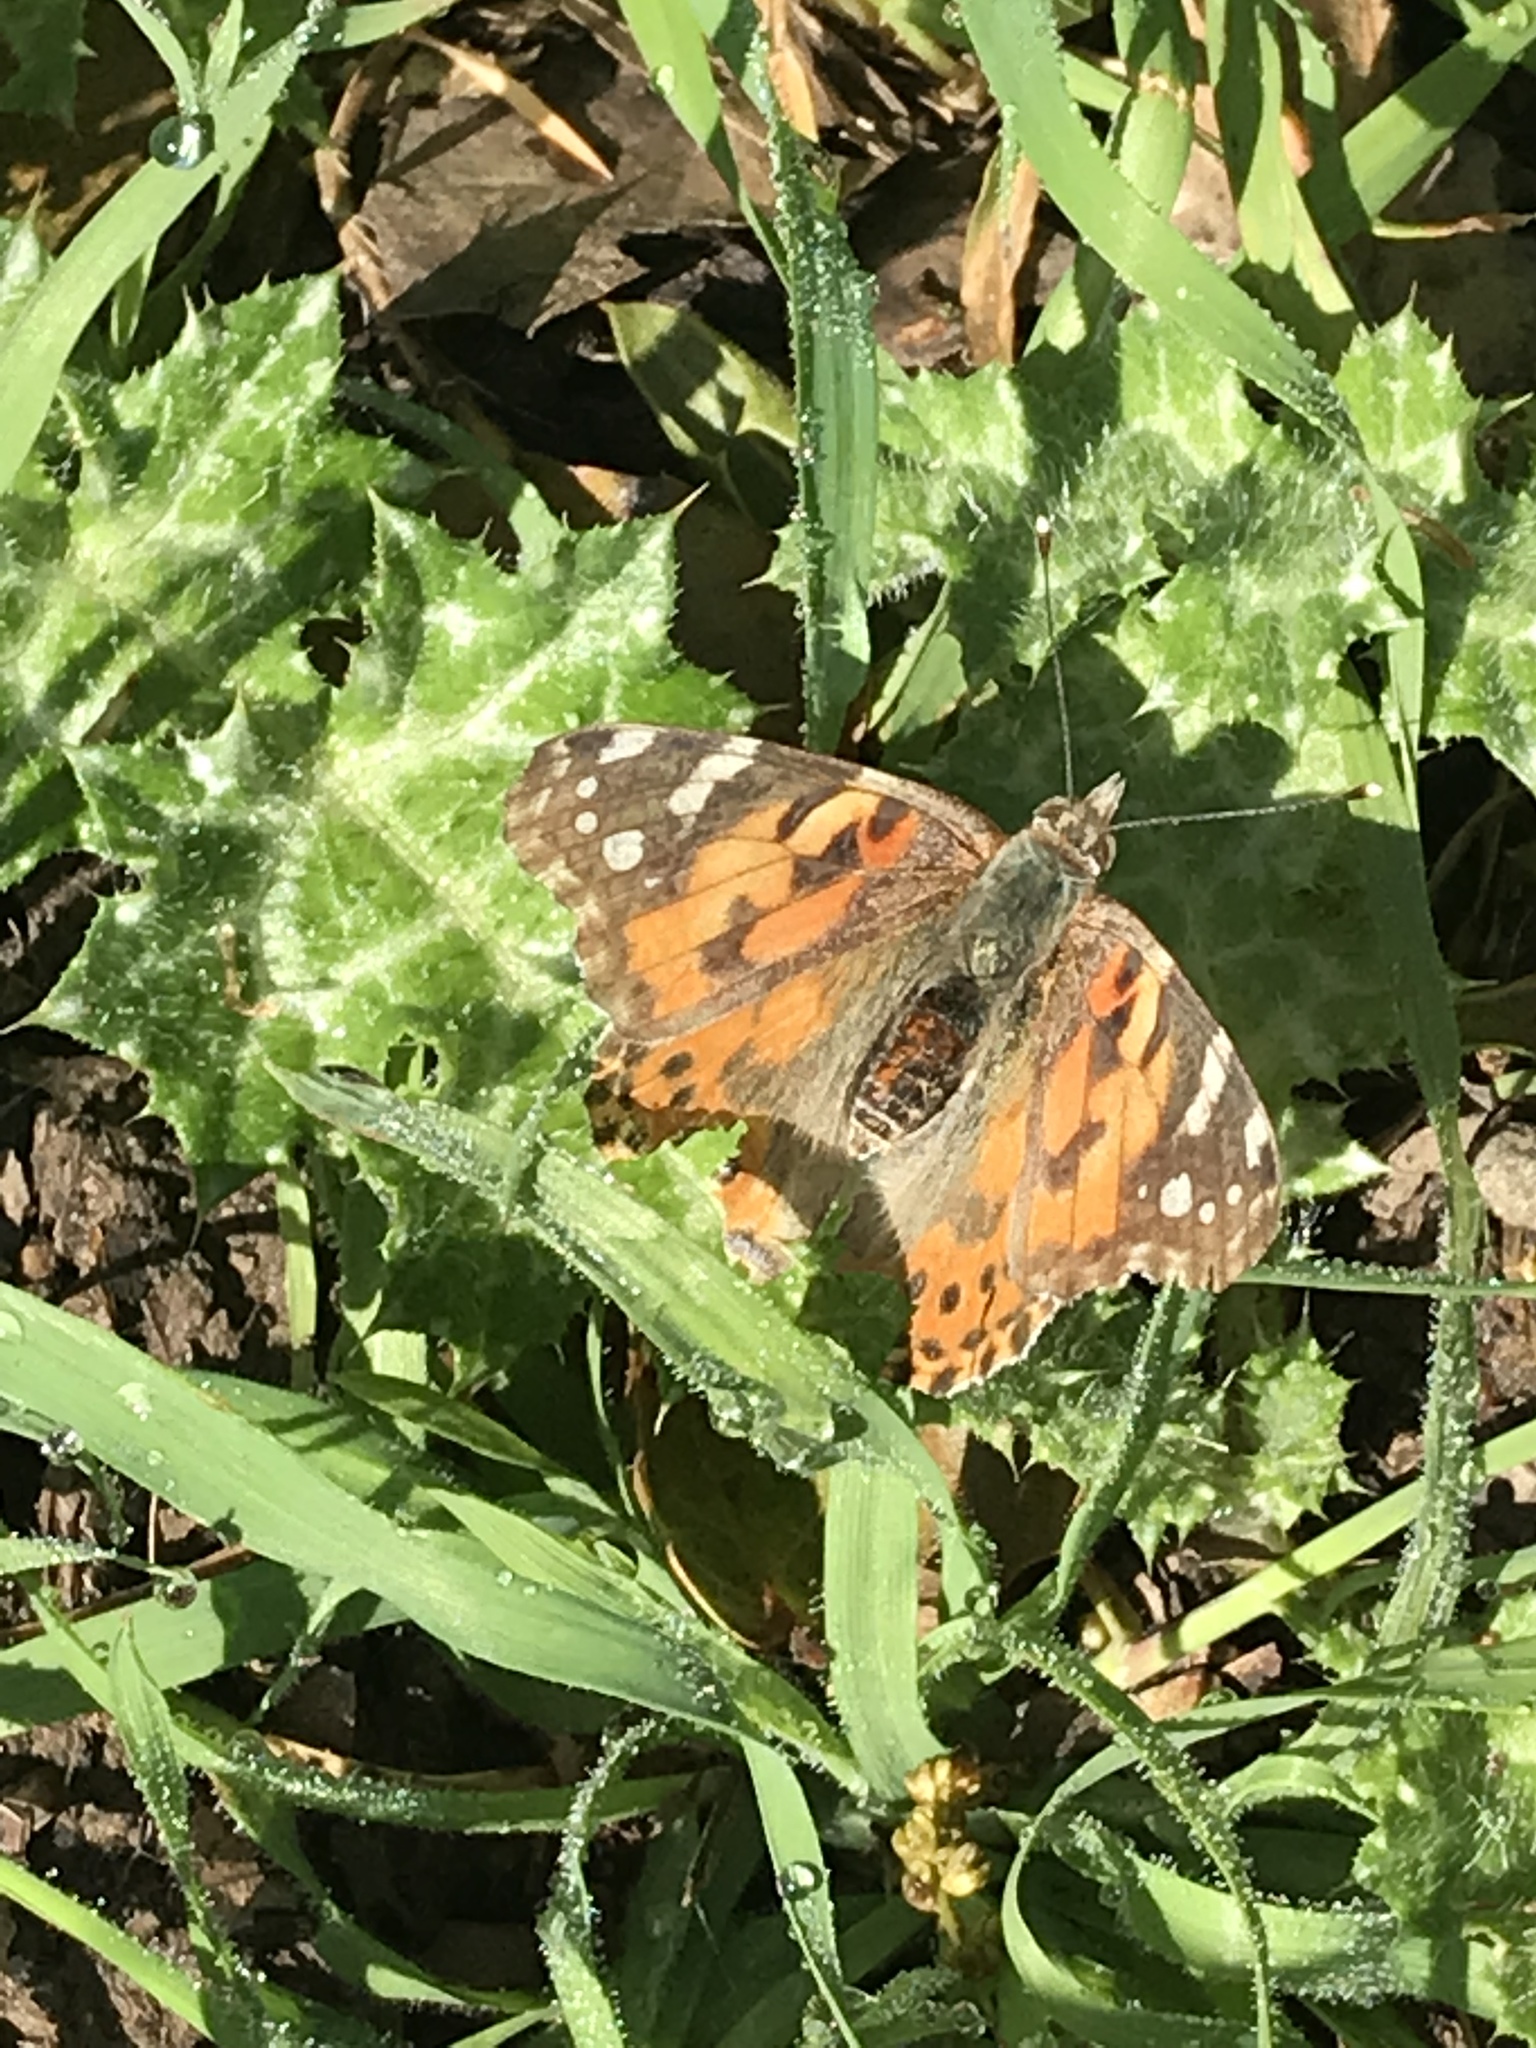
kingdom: Animalia
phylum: Arthropoda
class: Insecta
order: Lepidoptera
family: Nymphalidae
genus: Vanessa
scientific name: Vanessa cardui
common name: Painted lady
